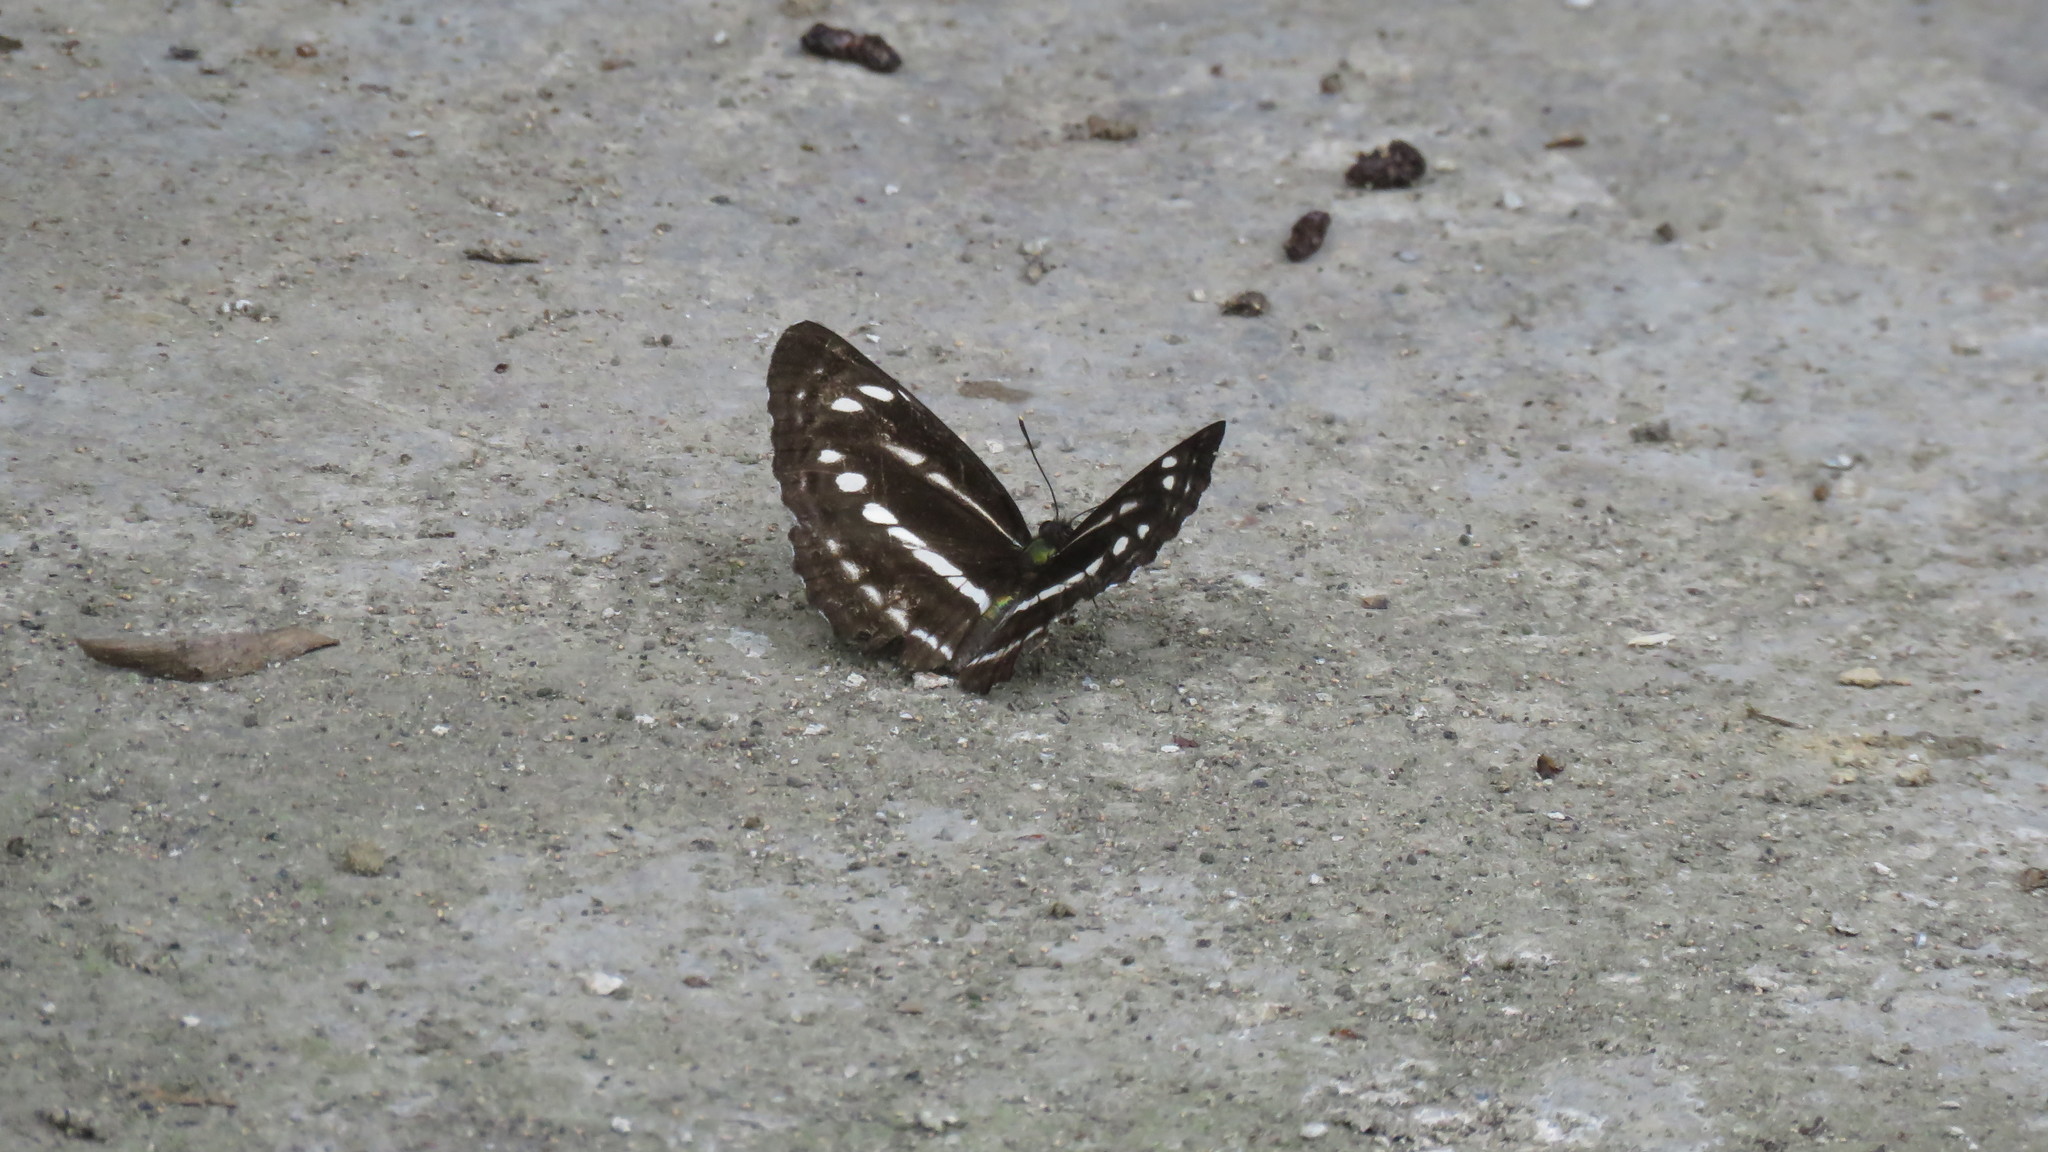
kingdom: Animalia
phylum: Arthropoda
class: Insecta
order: Lepidoptera
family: Nymphalidae
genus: Neptis
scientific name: Neptis nata
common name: Sullied brown sailer
